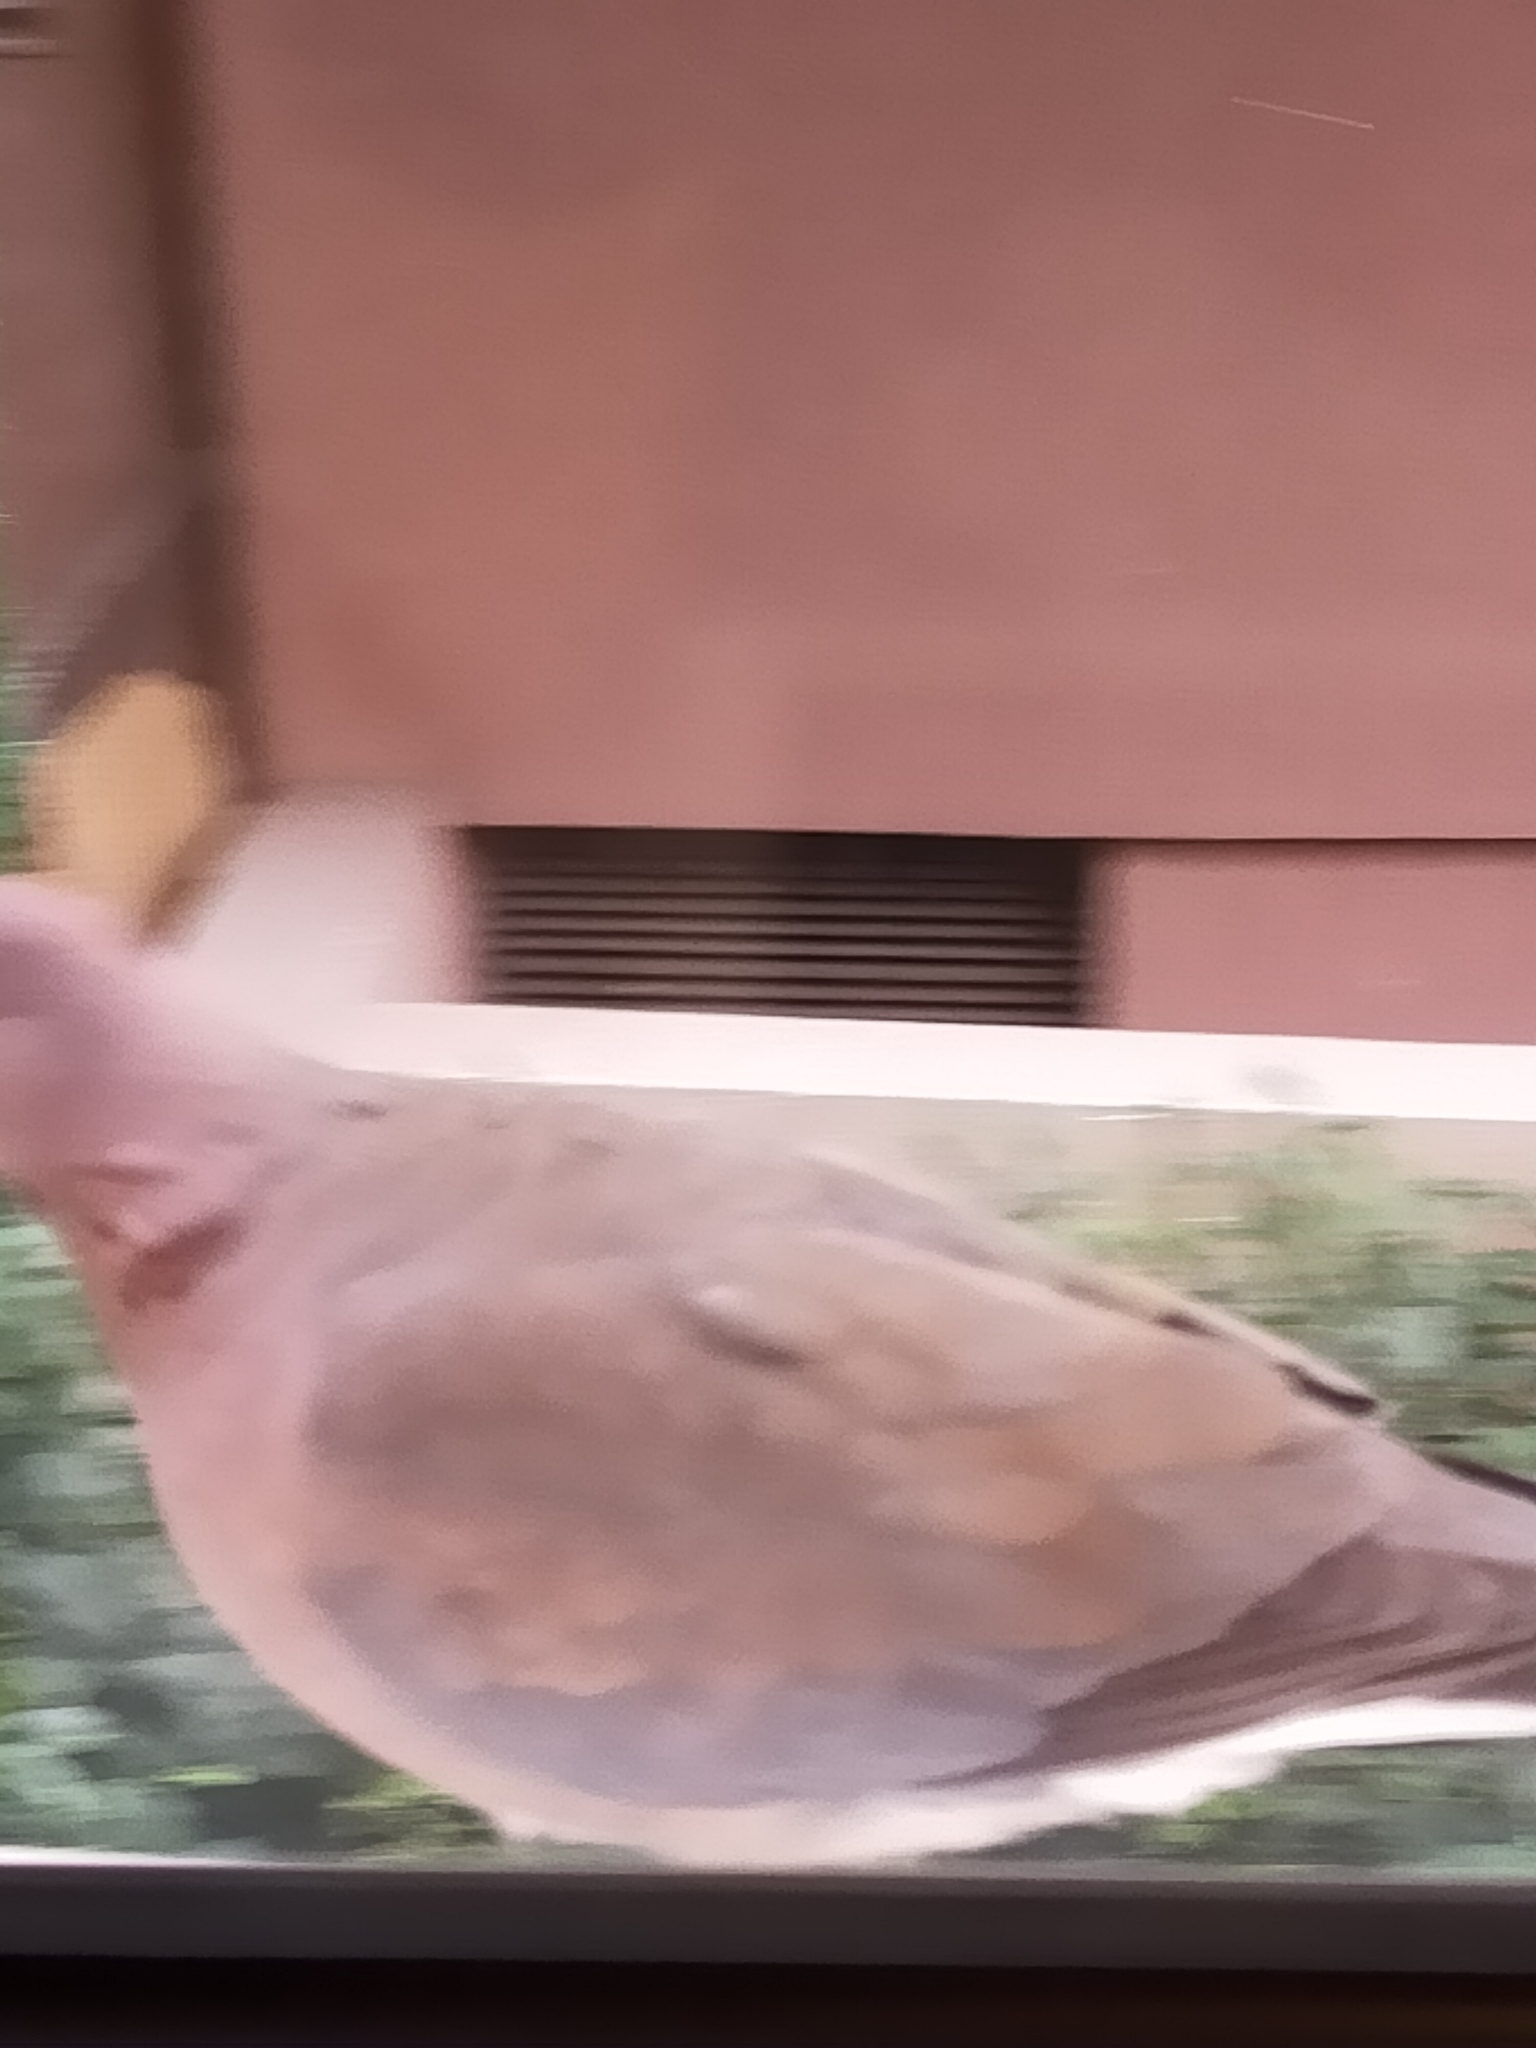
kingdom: Animalia
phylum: Chordata
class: Aves
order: Columbiformes
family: Columbidae
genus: Spilopelia
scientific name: Spilopelia senegalensis
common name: Laughing dove
